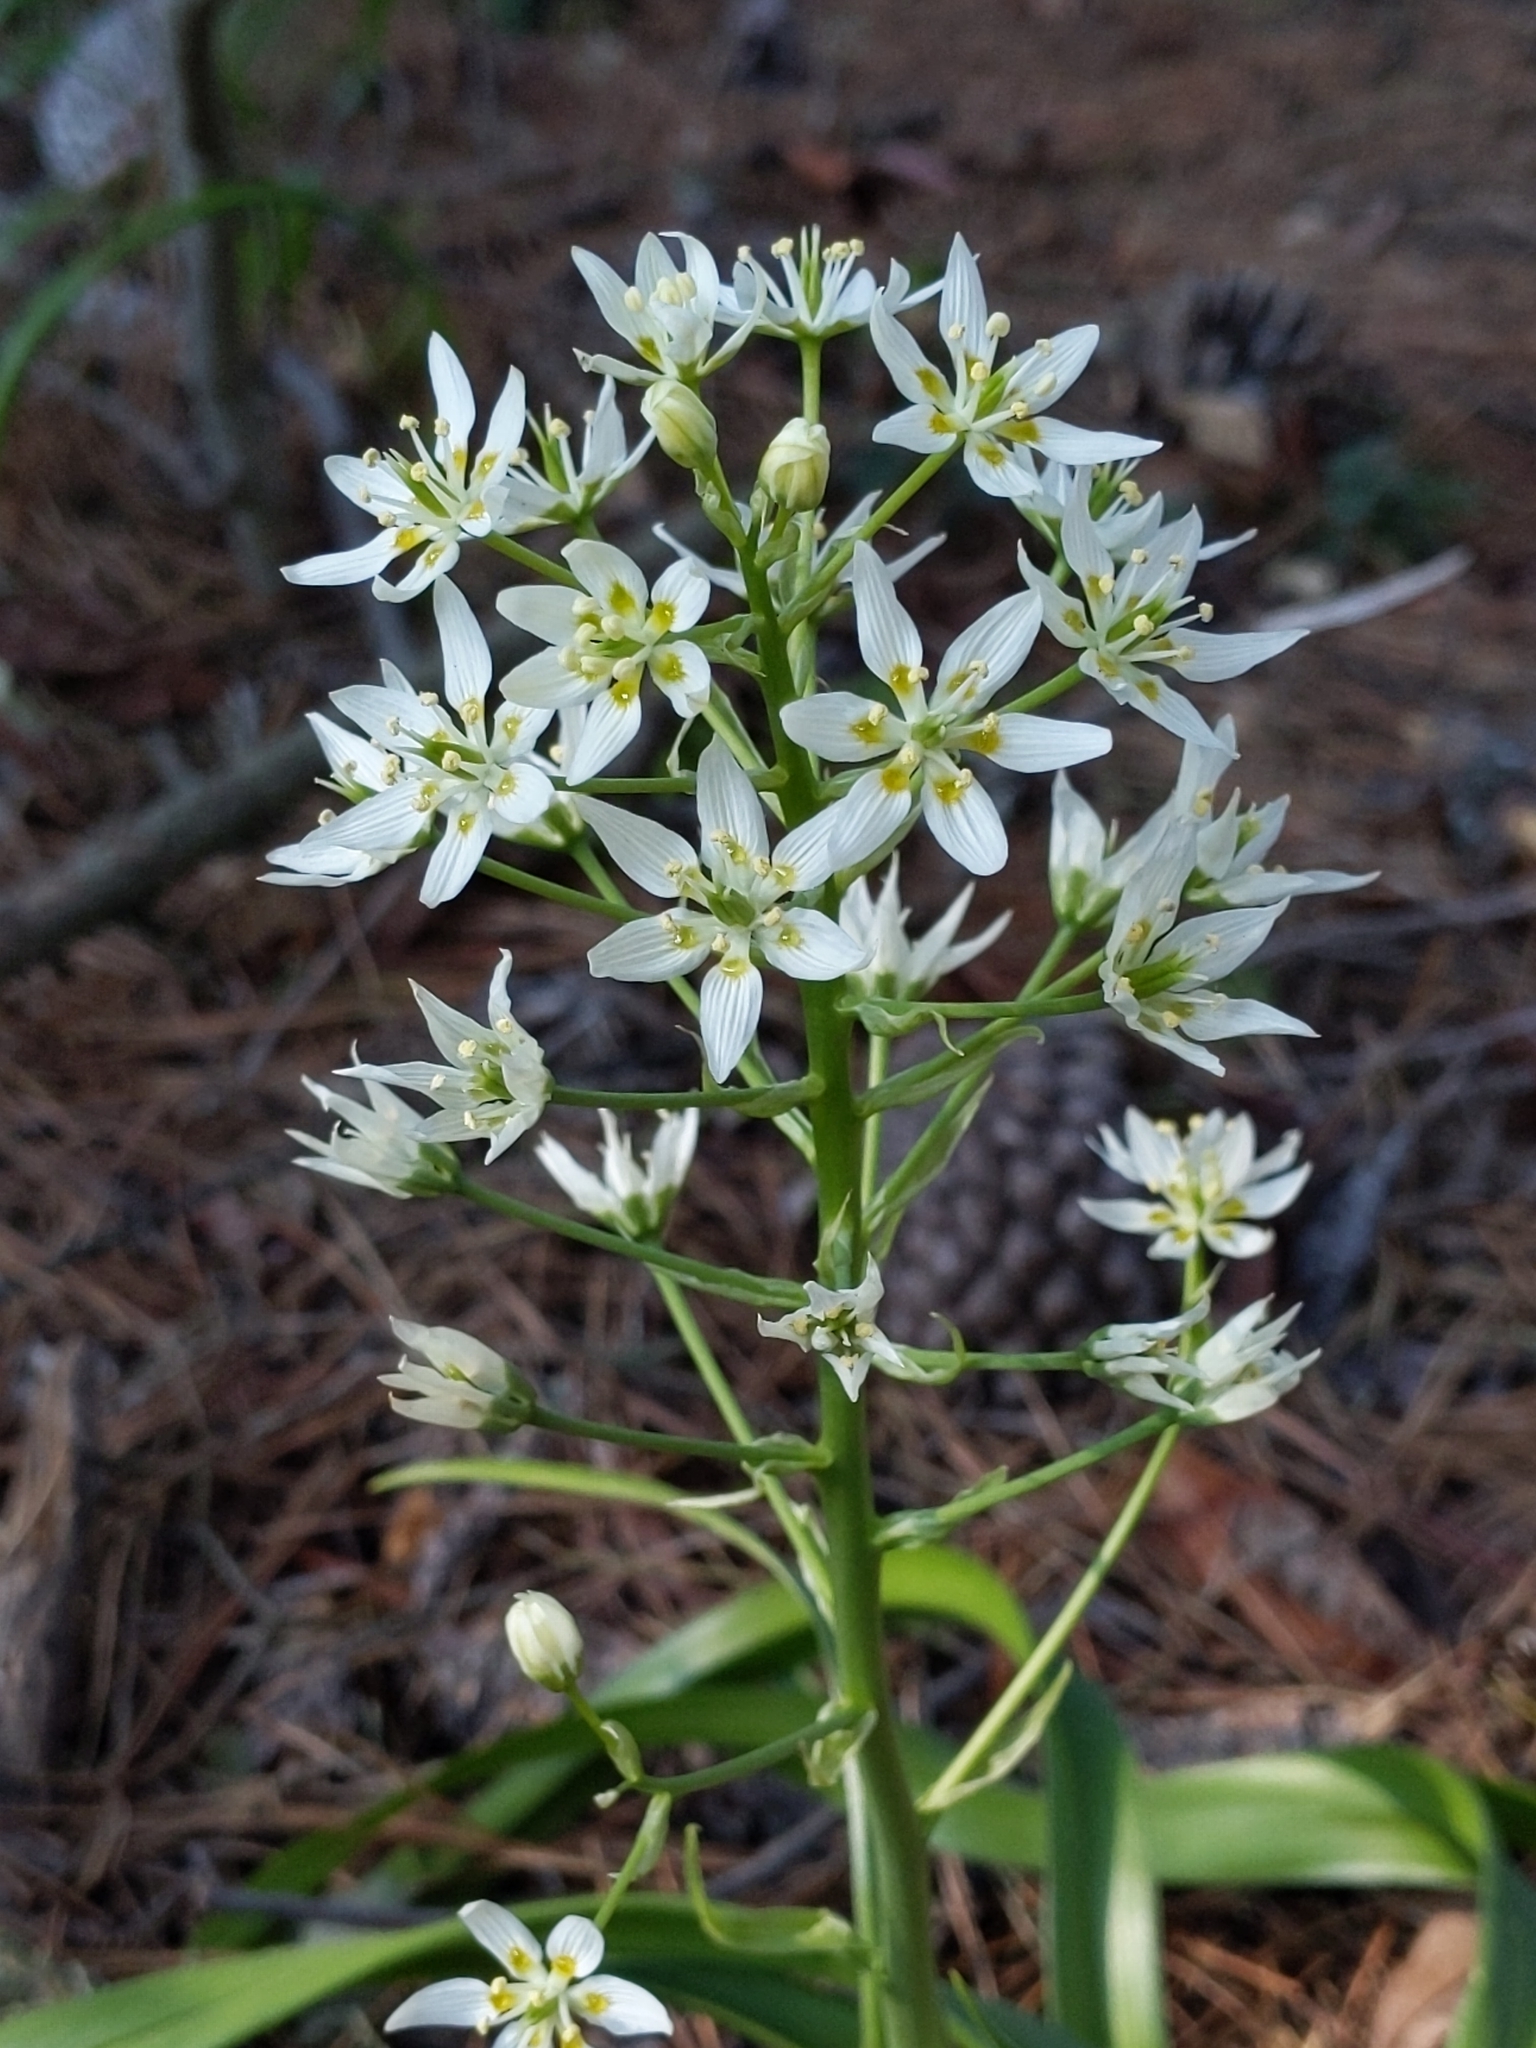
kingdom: Plantae
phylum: Tracheophyta
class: Liliopsida
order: Liliales
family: Melanthiaceae
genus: Toxicoscordion
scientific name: Toxicoscordion fremontii
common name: Fremont's death camas
